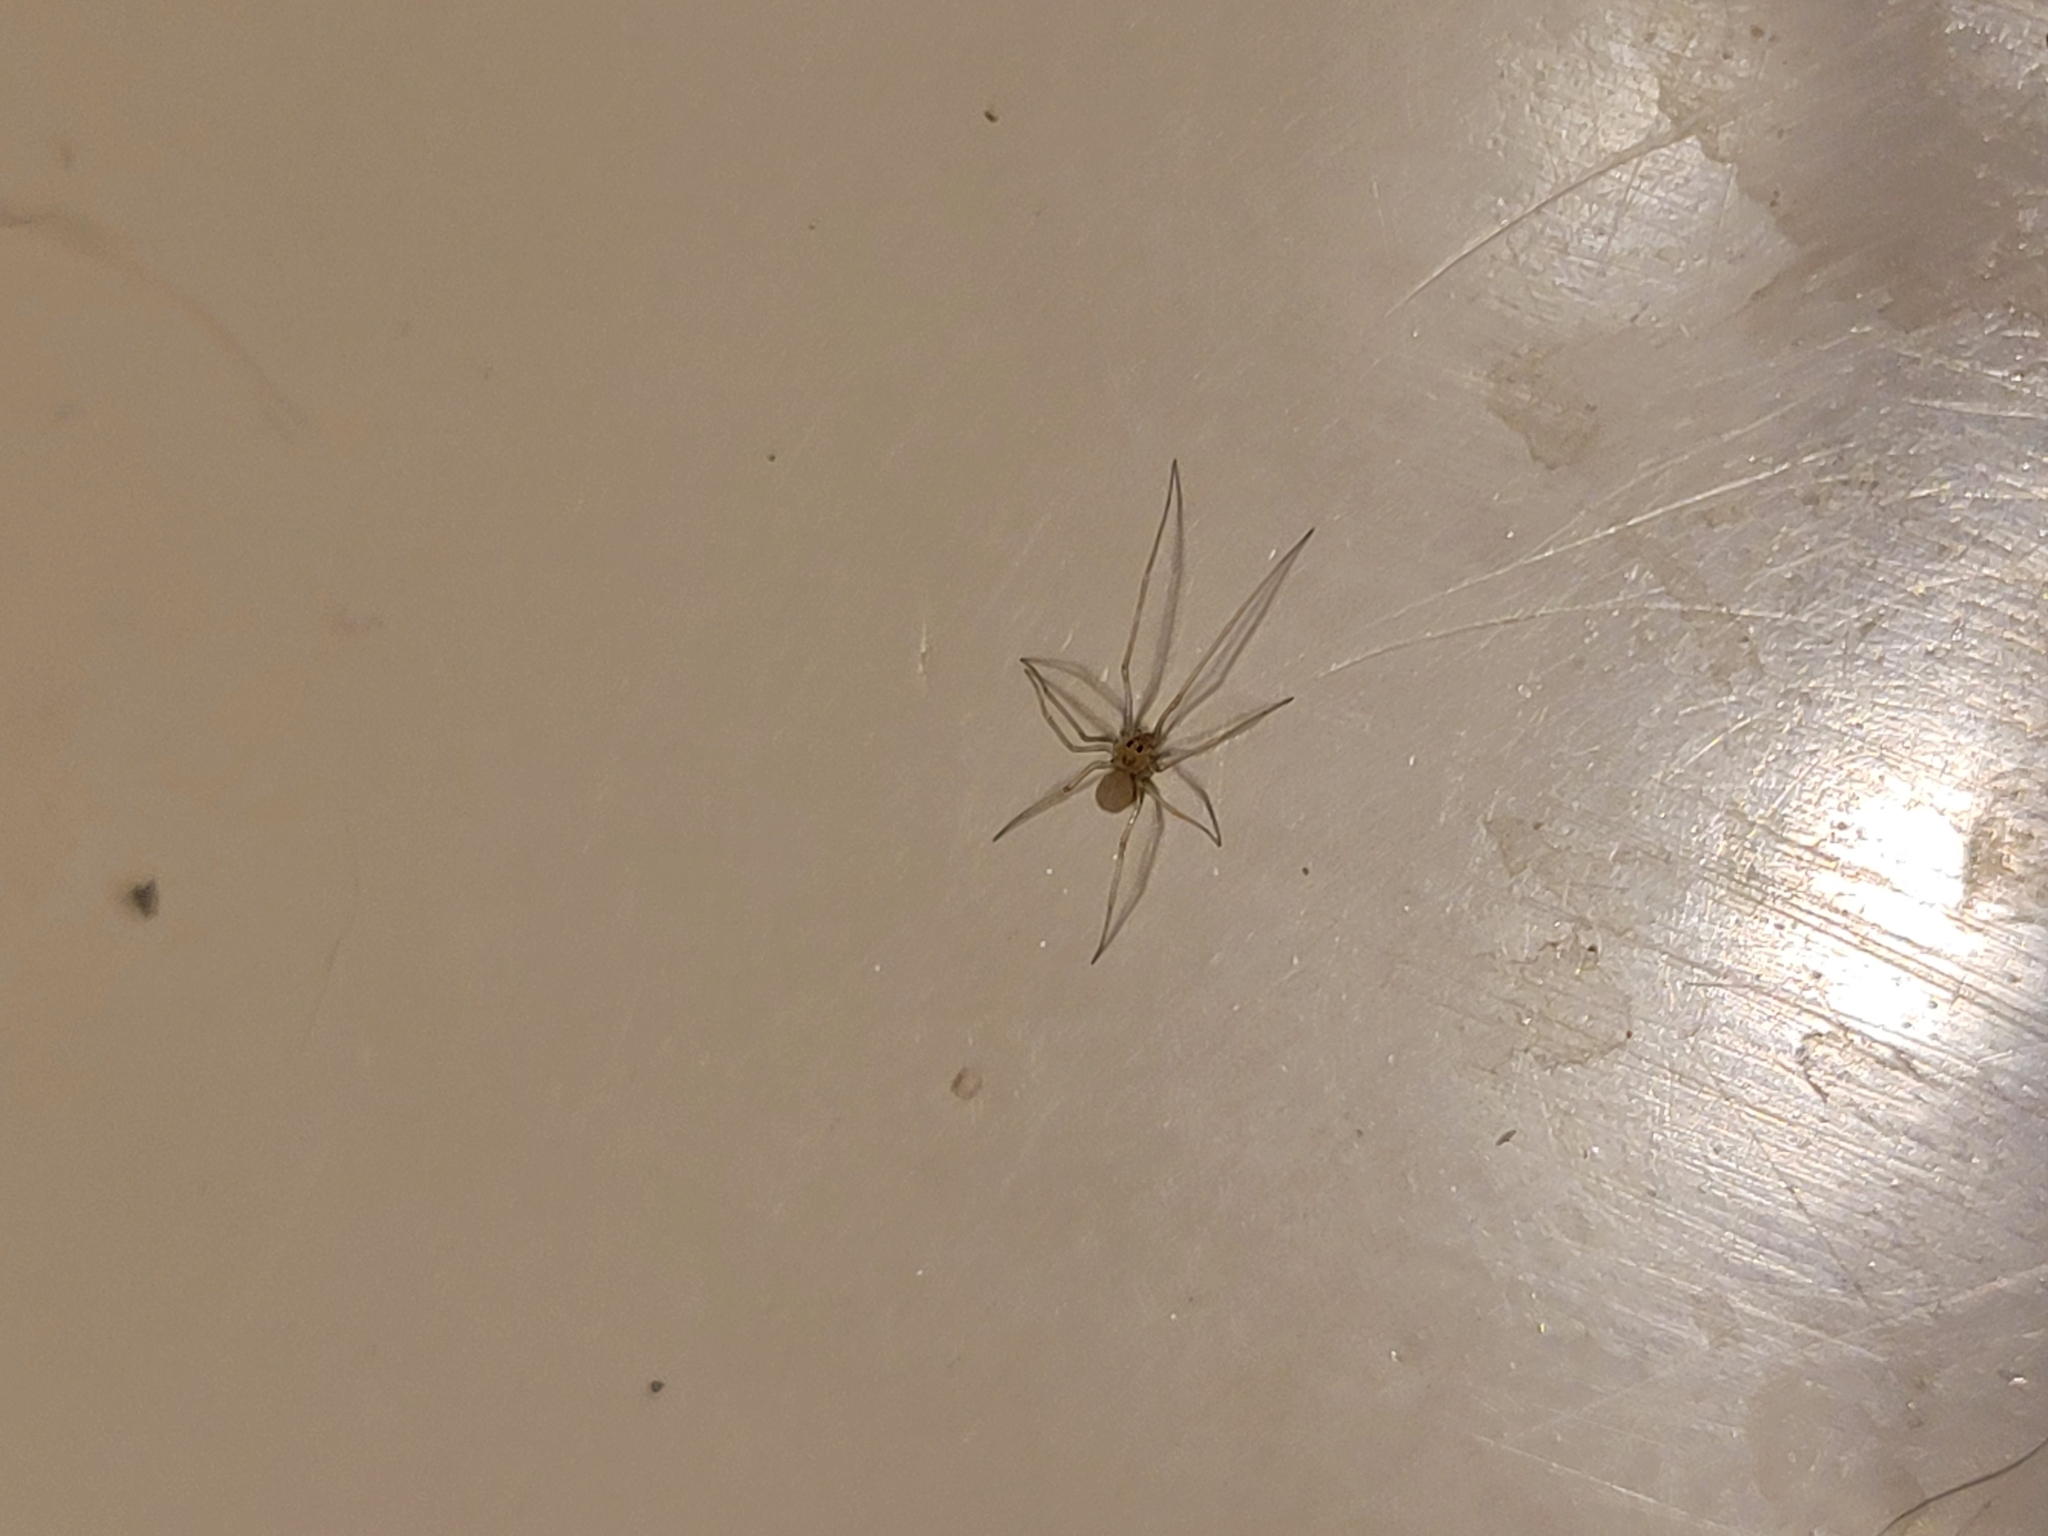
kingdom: Animalia
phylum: Arthropoda
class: Arachnida
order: Araneae
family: Pholcidae
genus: Spermophora
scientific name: Spermophora senoculata
